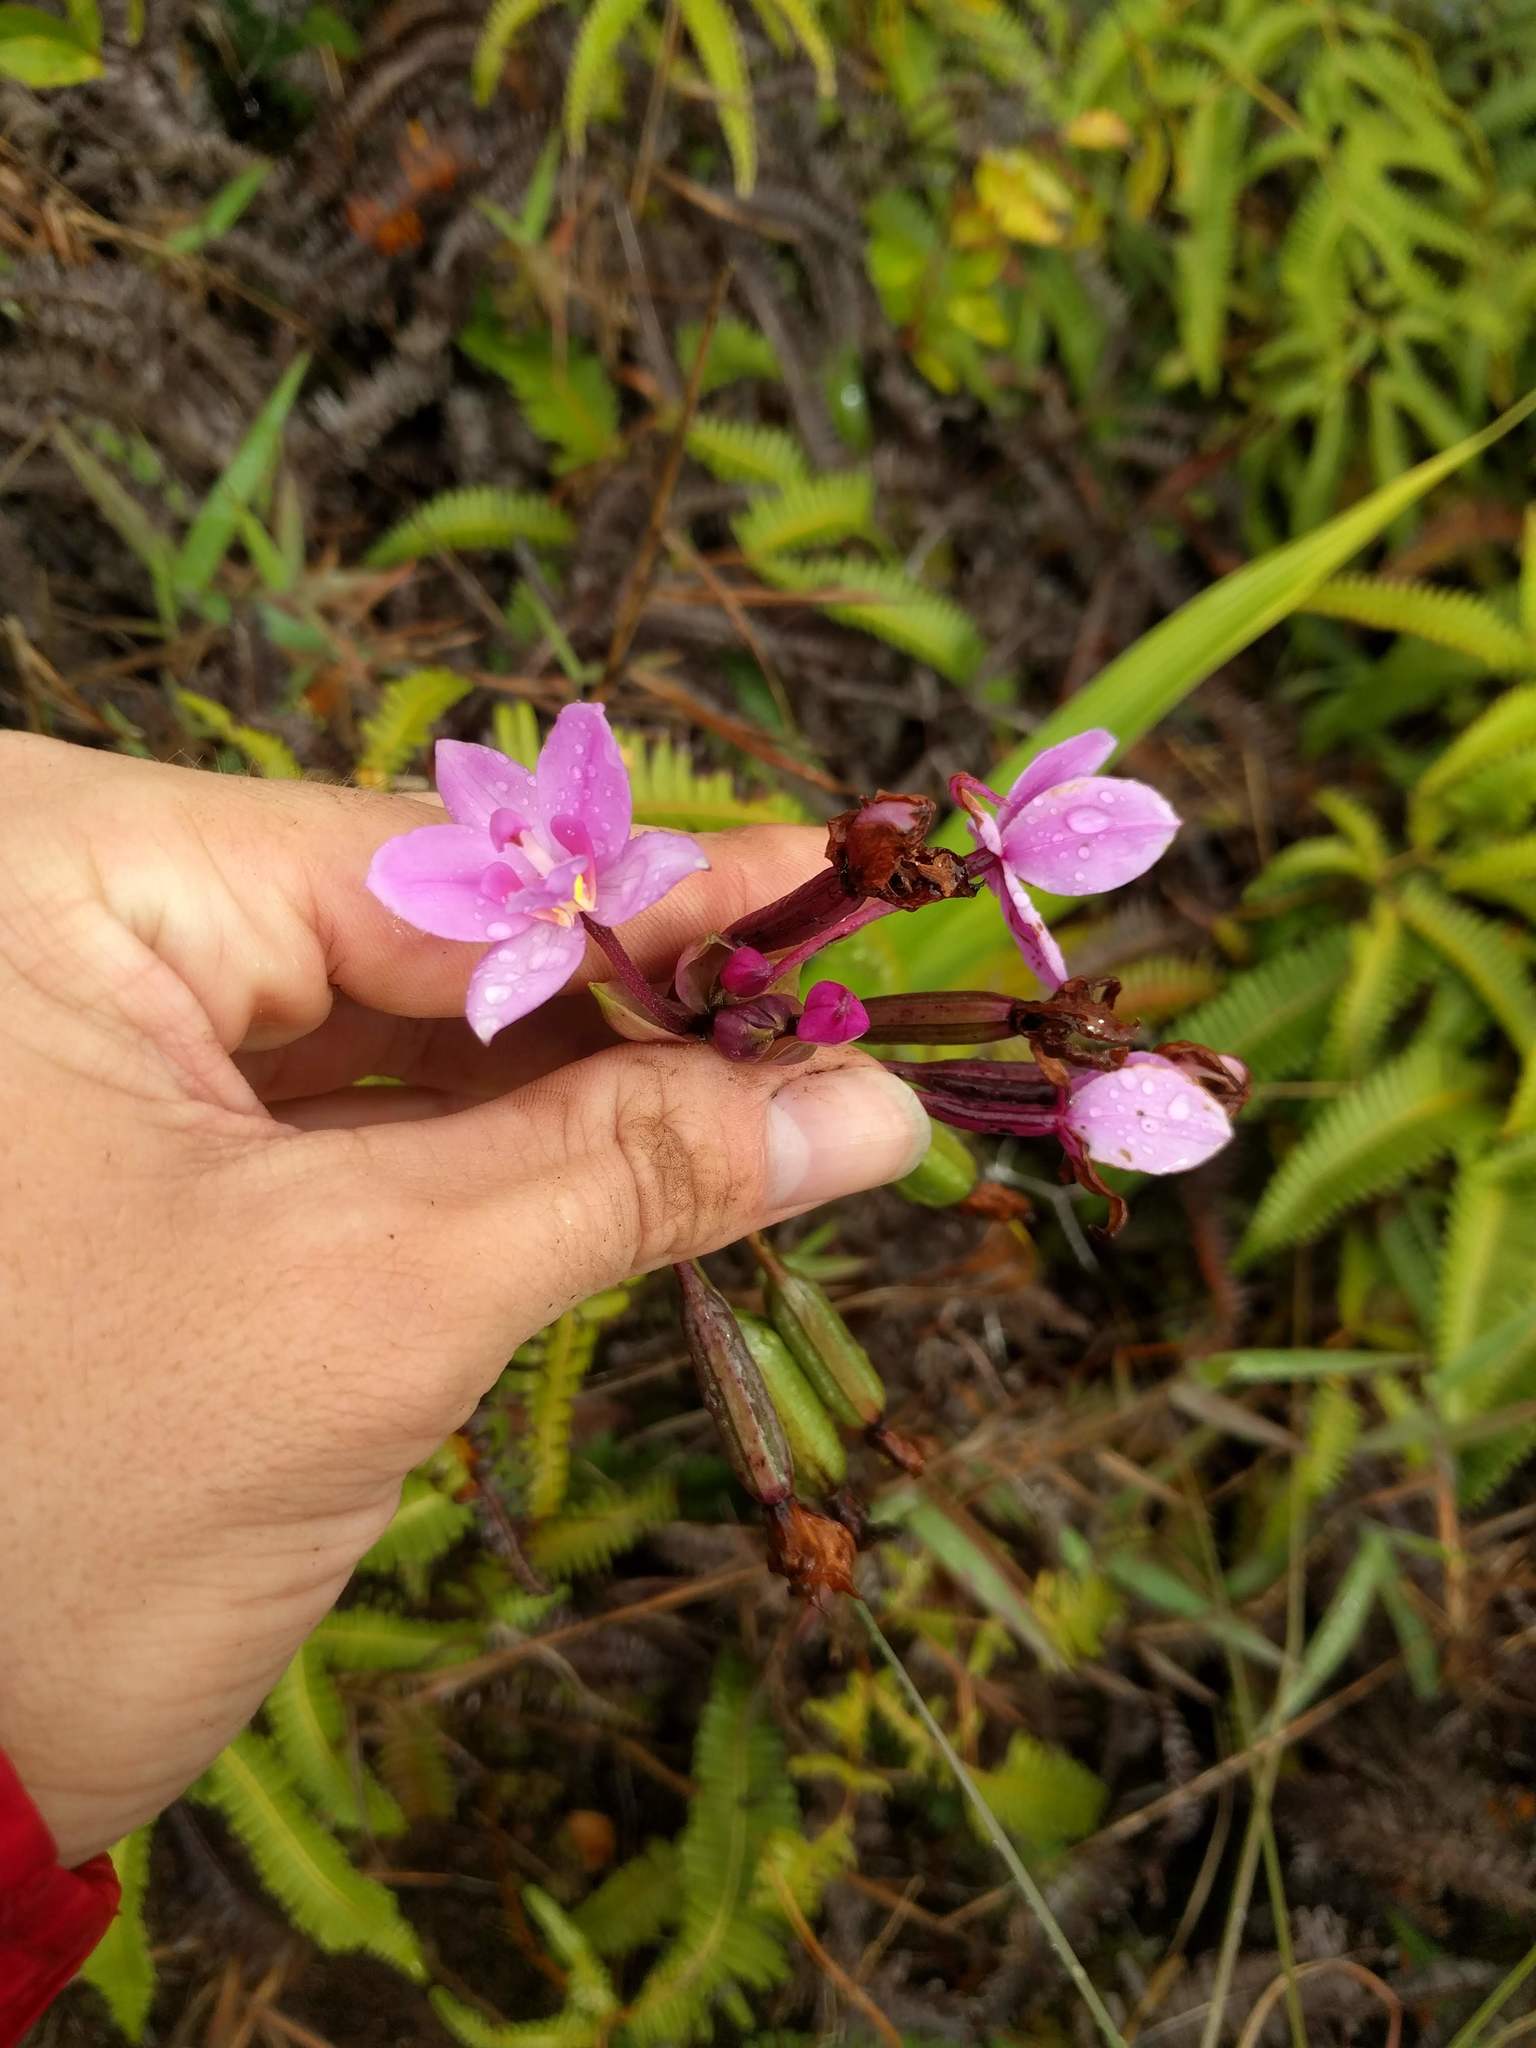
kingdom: Plantae
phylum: Tracheophyta
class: Liliopsida
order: Asparagales
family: Orchidaceae
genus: Spathoglottis
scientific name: Spathoglottis plicata
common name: Philippine ground orchid
